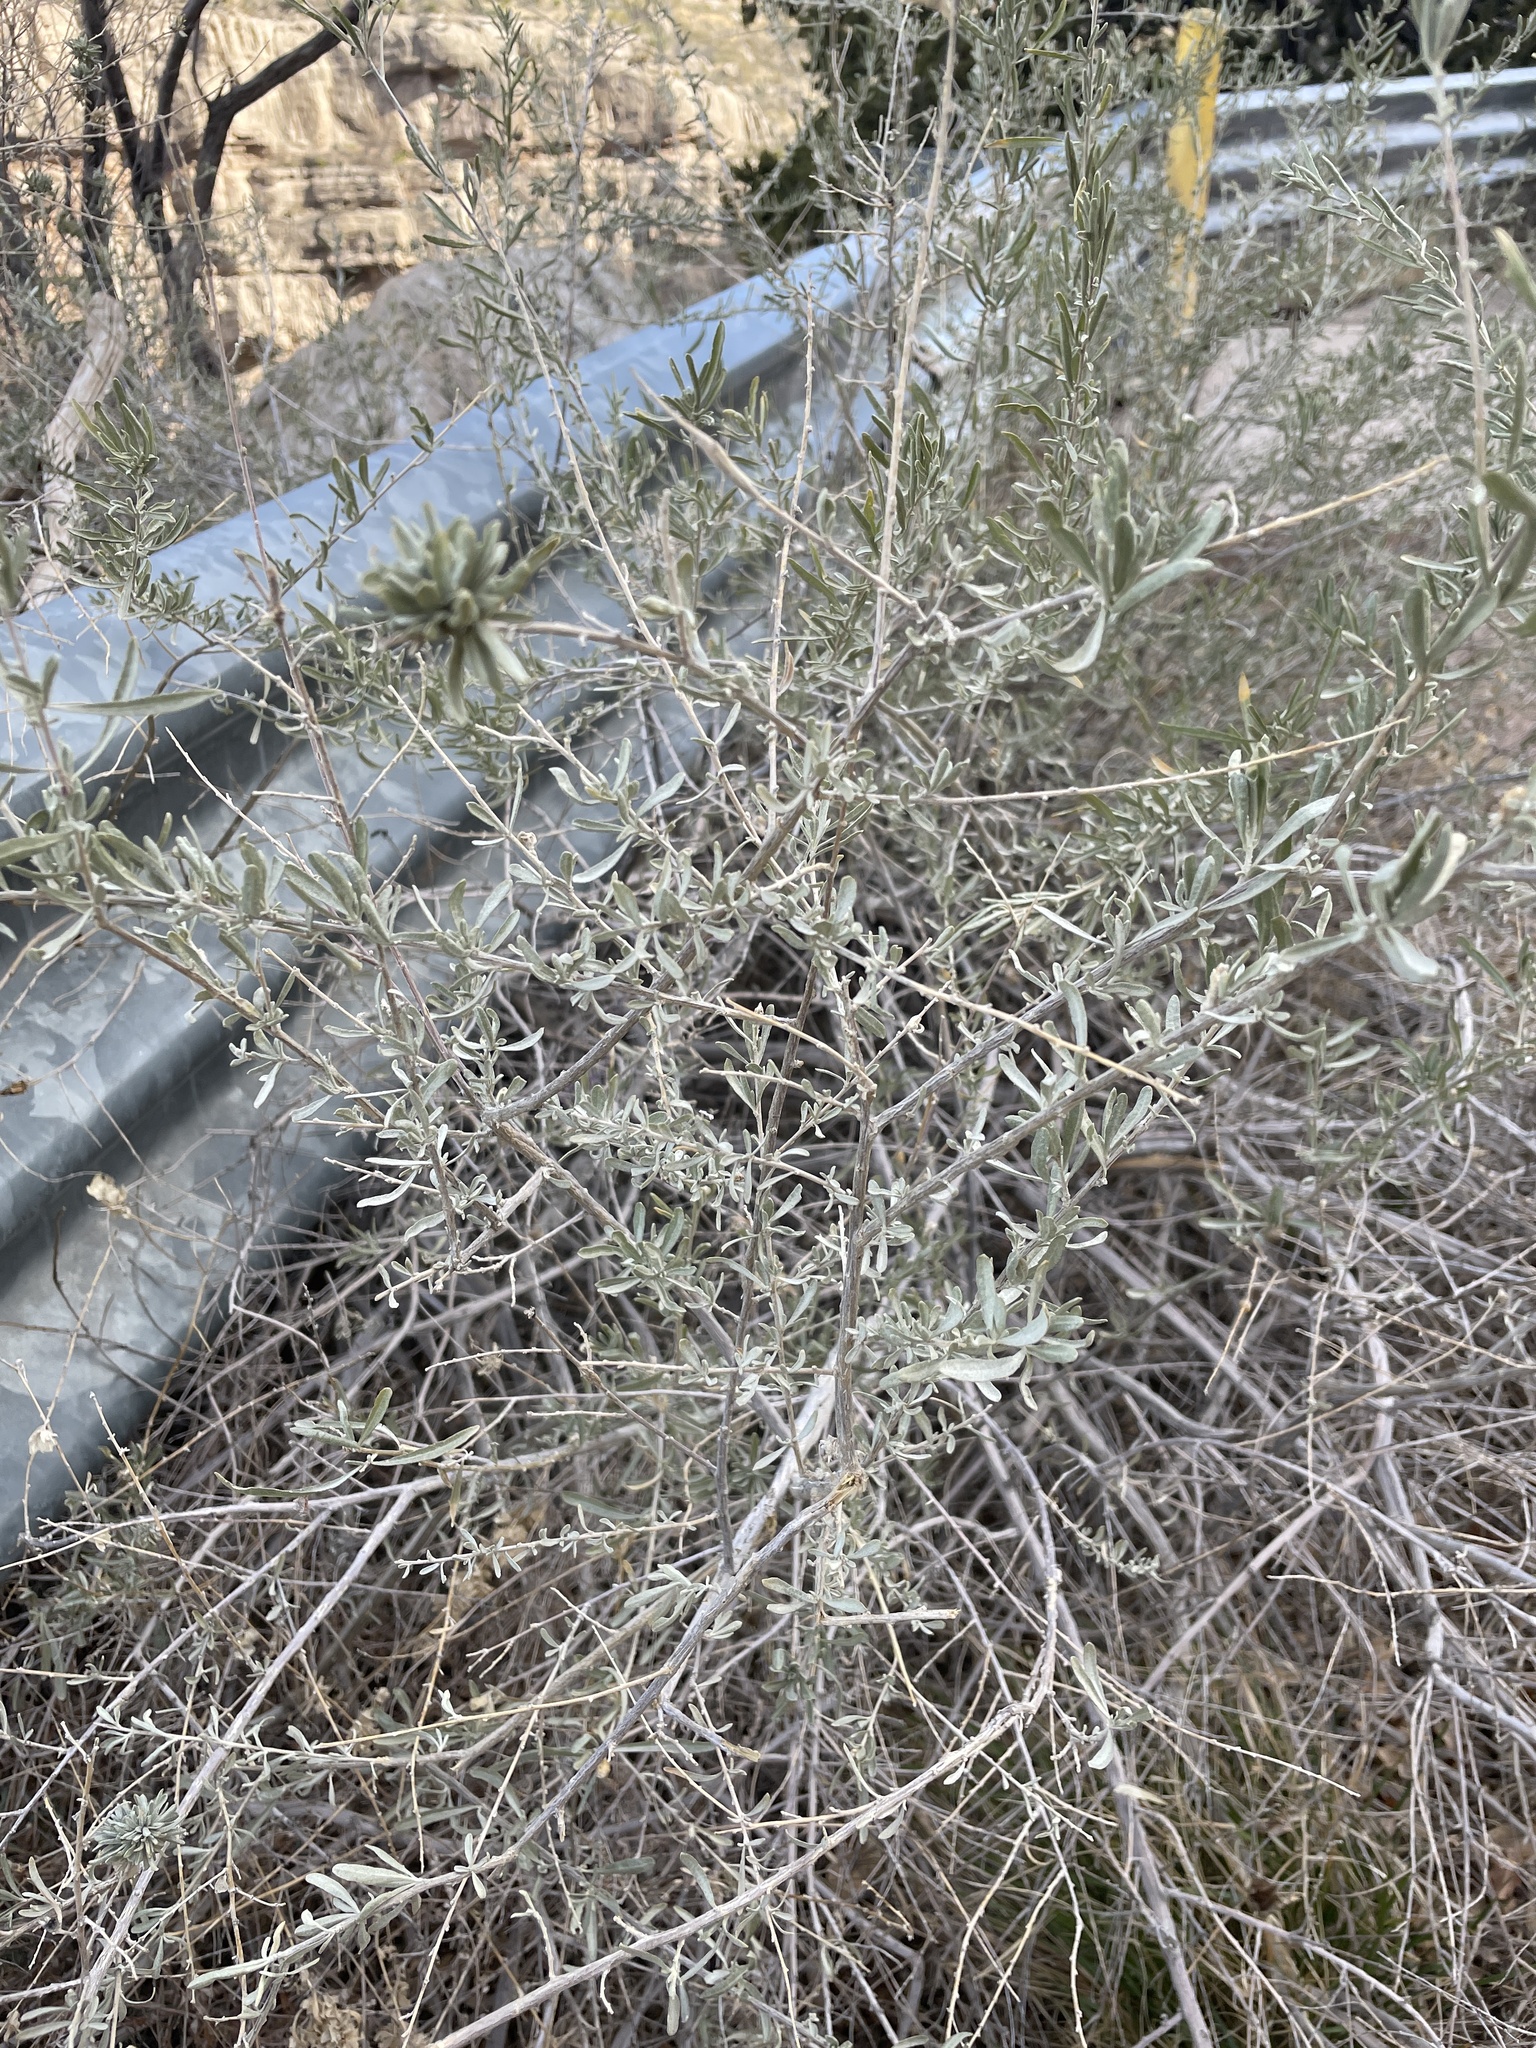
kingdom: Animalia
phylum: Arthropoda
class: Insecta
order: Diptera
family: Agromyzidae
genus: Ophiomyia
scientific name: Ophiomyia atriplicis
